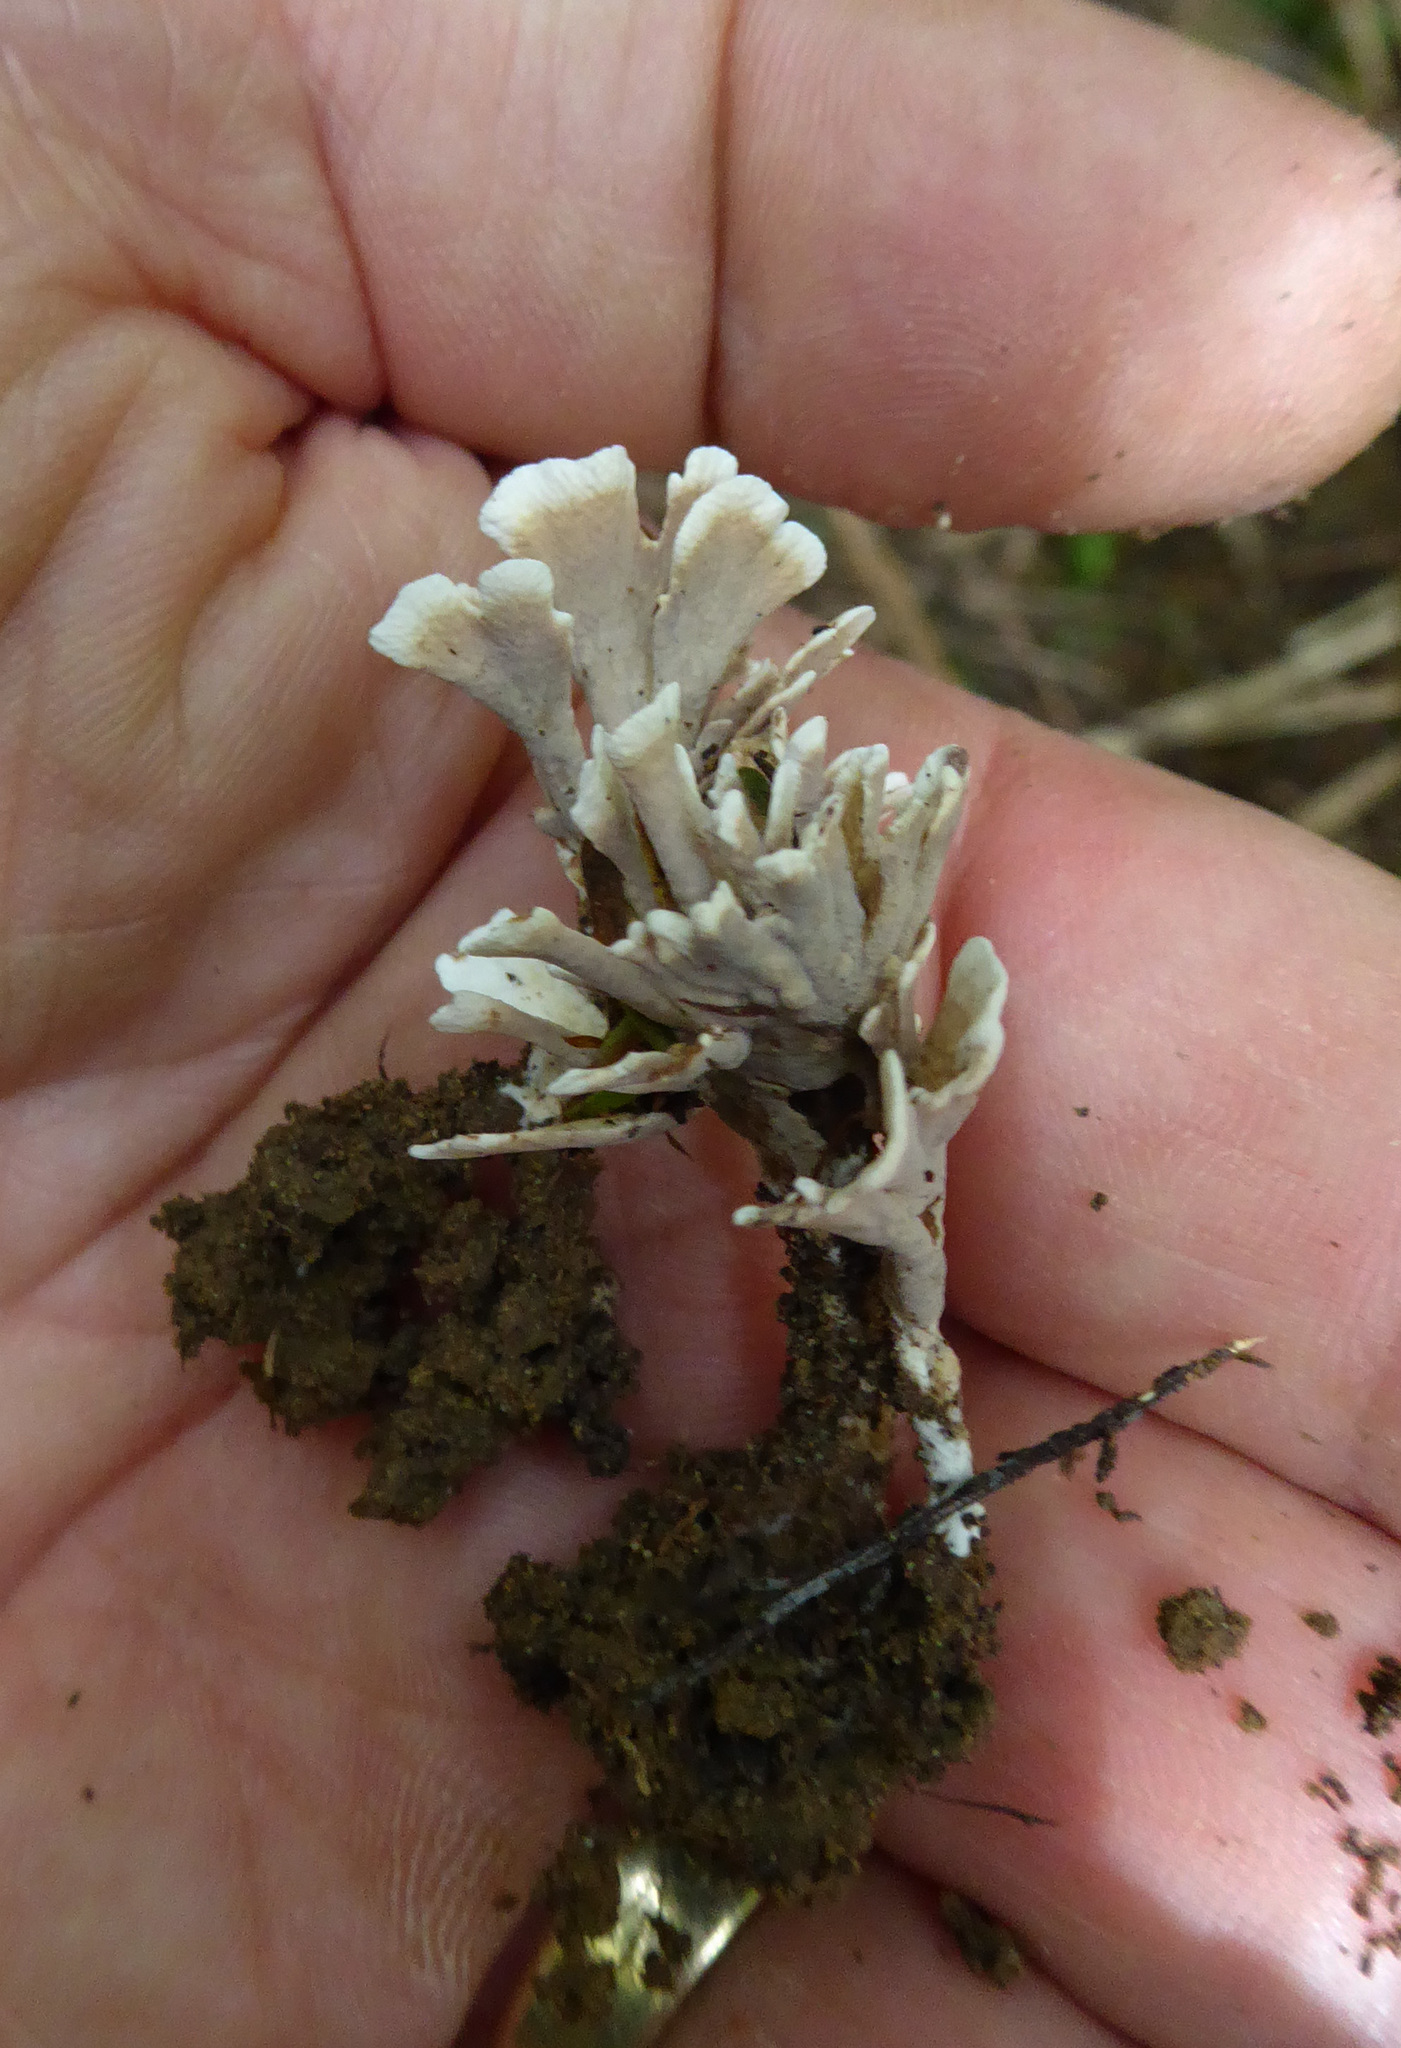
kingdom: Fungi
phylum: Basidiomycota
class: Agaricomycetes
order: Stereopsidales
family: Stereopsidaceae
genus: Stereopsis
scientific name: Stereopsis hiscens
